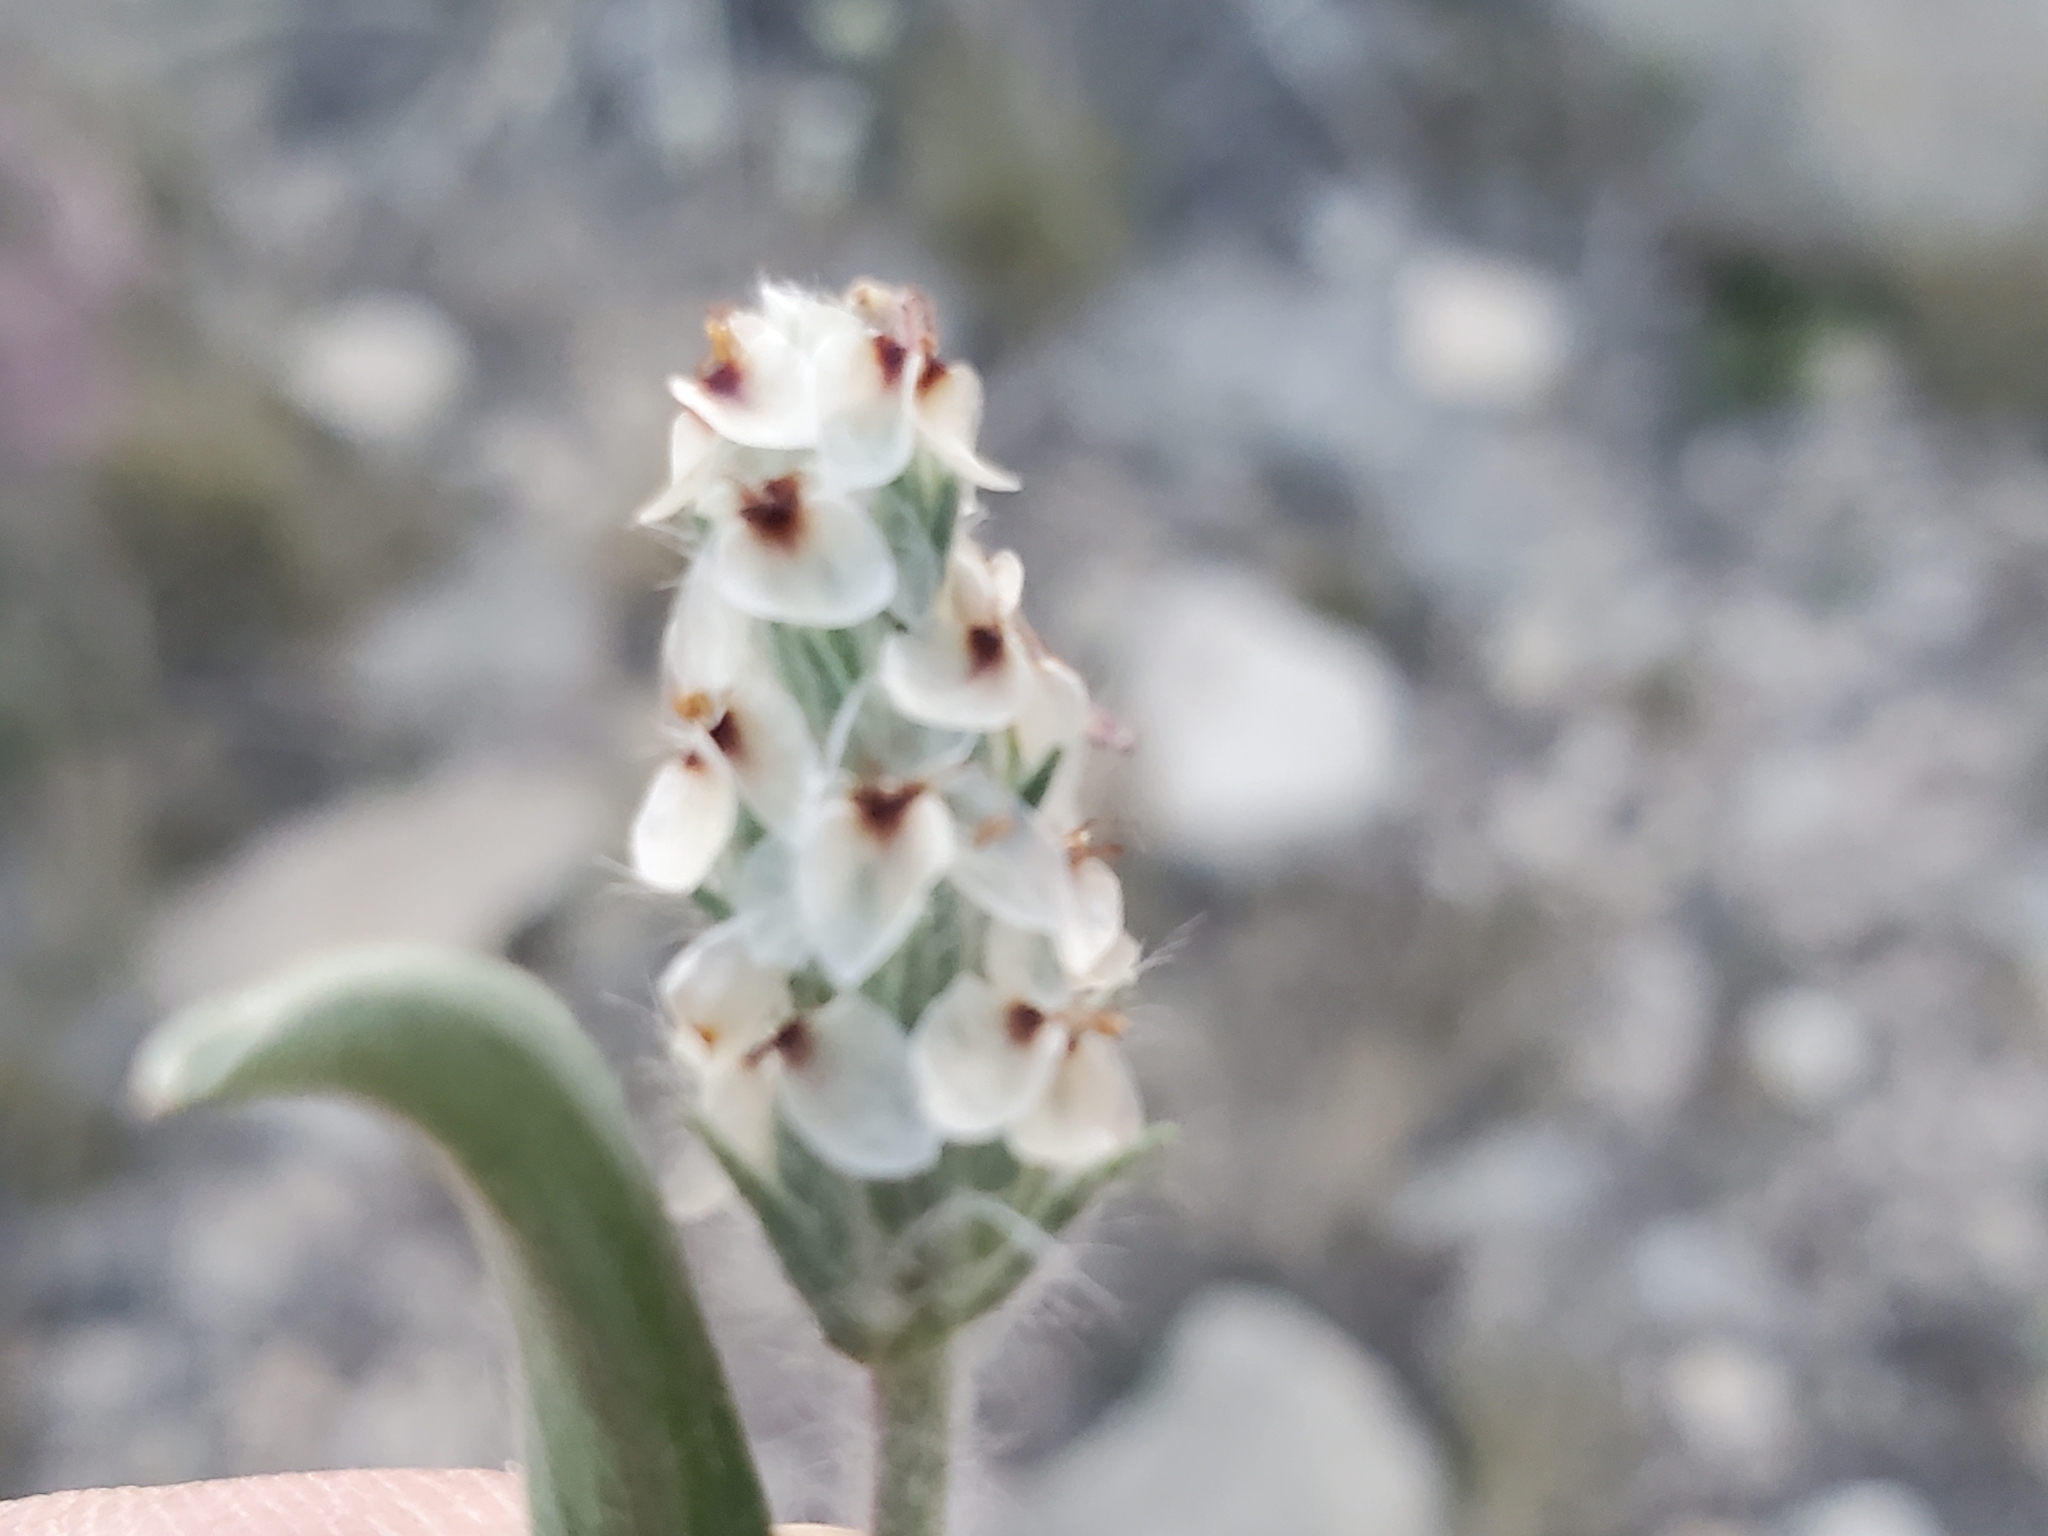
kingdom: Plantae
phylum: Tracheophyta
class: Magnoliopsida
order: Lamiales
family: Plantaginaceae
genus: Plantago
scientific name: Plantago helleri
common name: Heller's plantain
